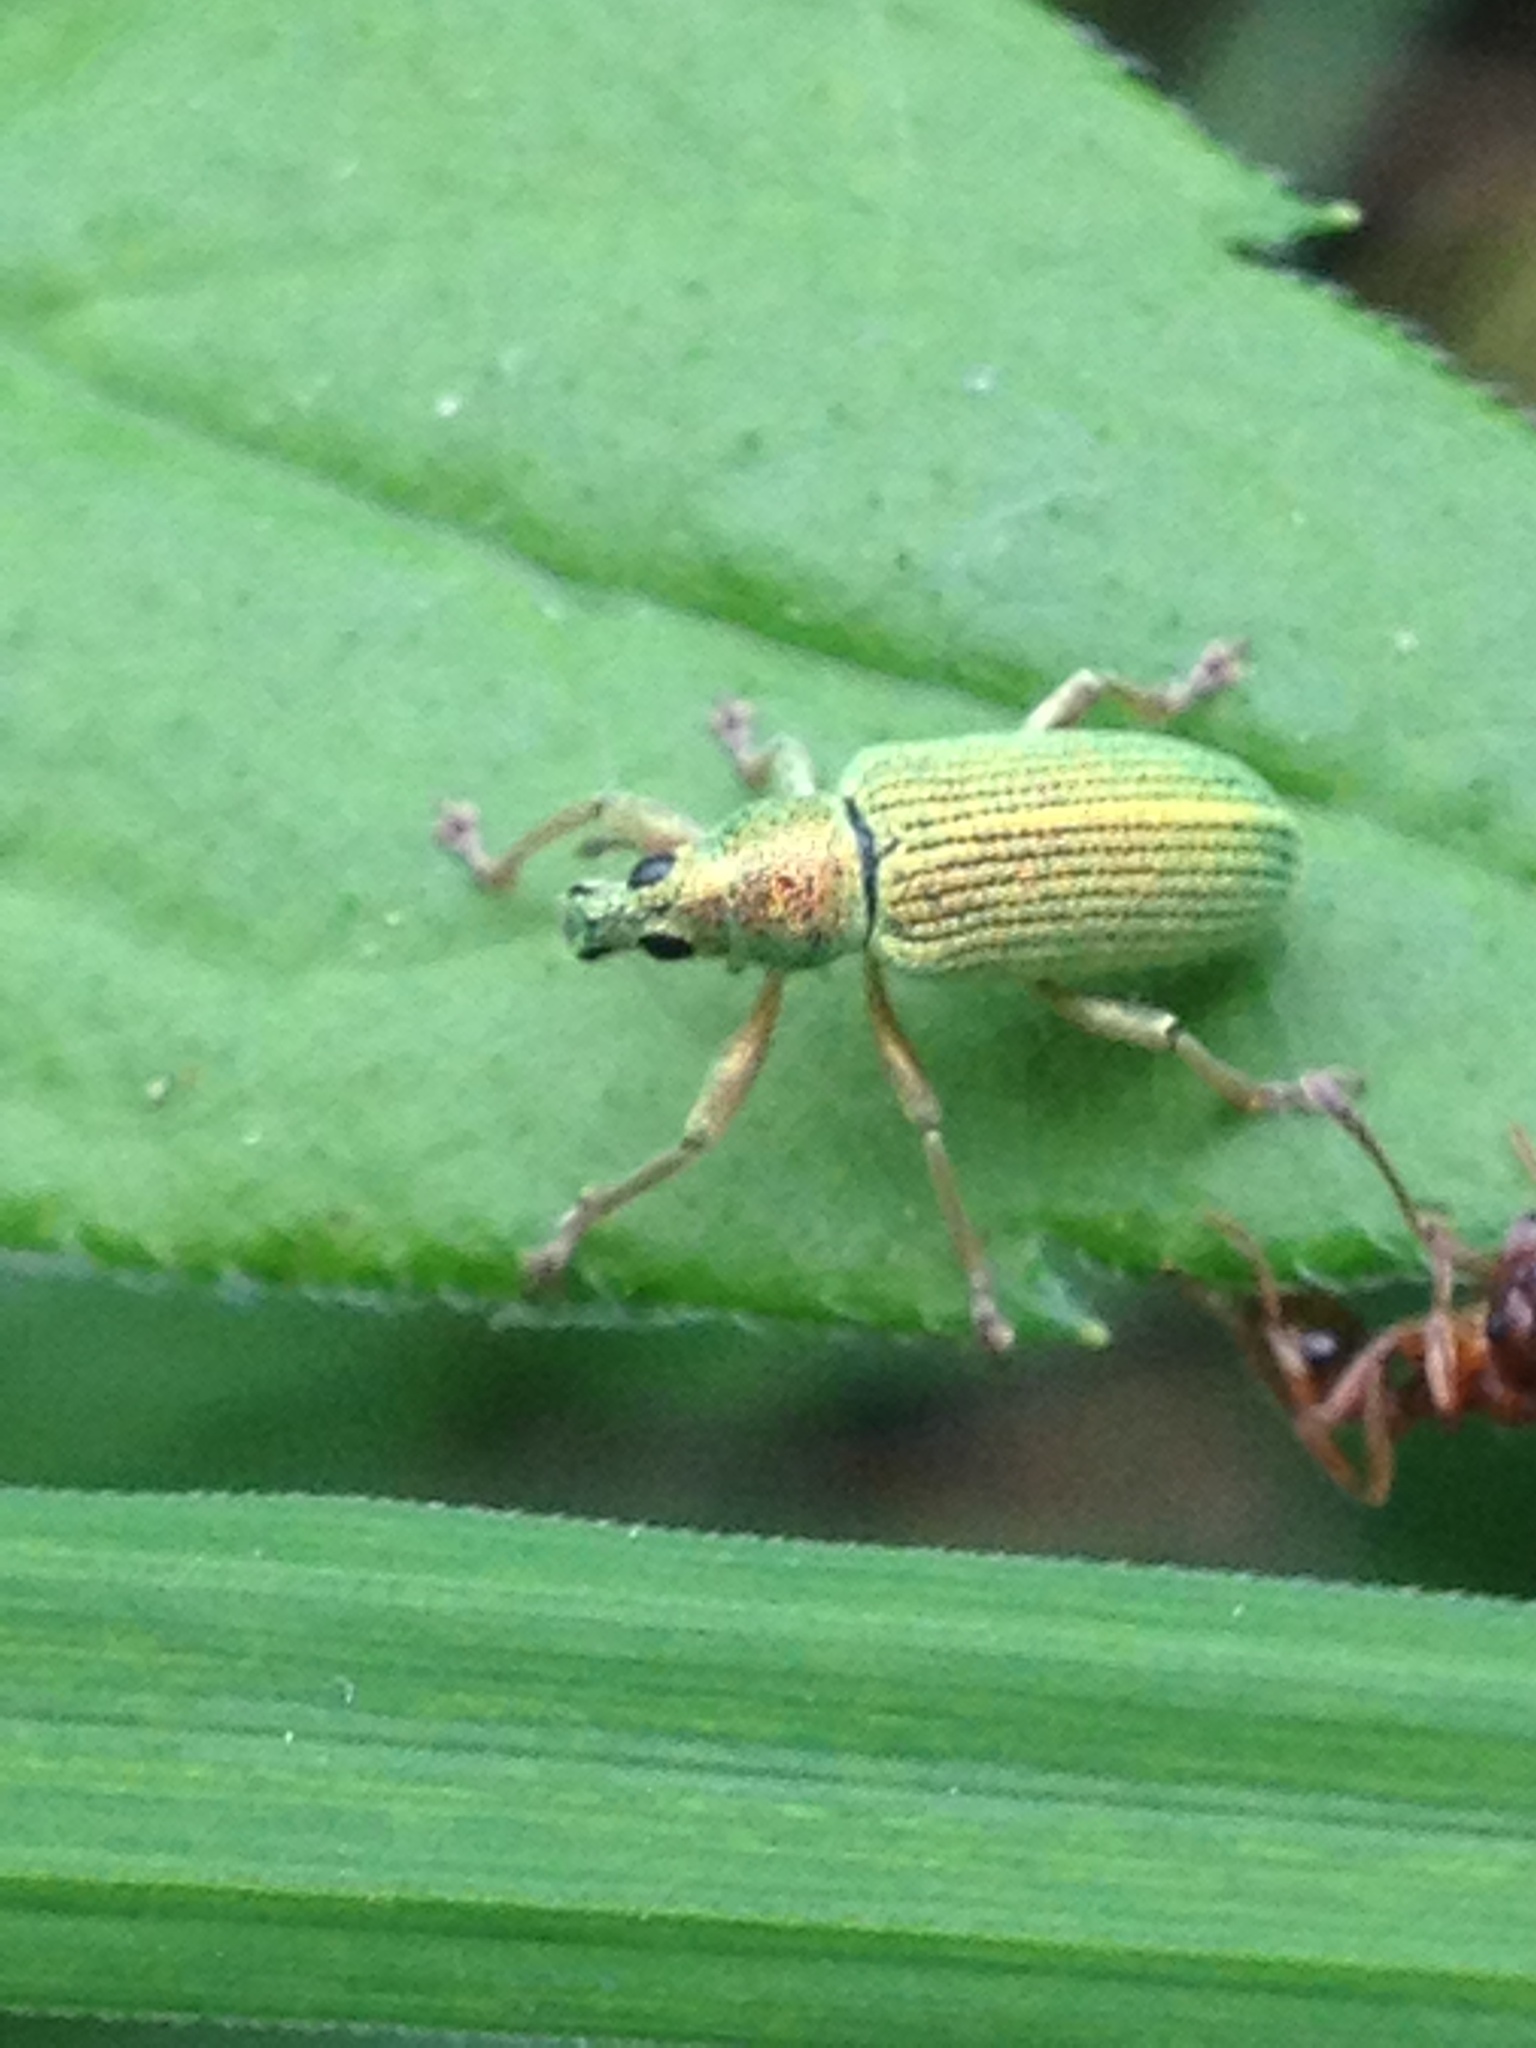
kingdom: Animalia
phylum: Arthropoda
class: Insecta
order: Coleoptera
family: Curculionidae
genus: Polydrusus
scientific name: Polydrusus formosus
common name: Weevil
